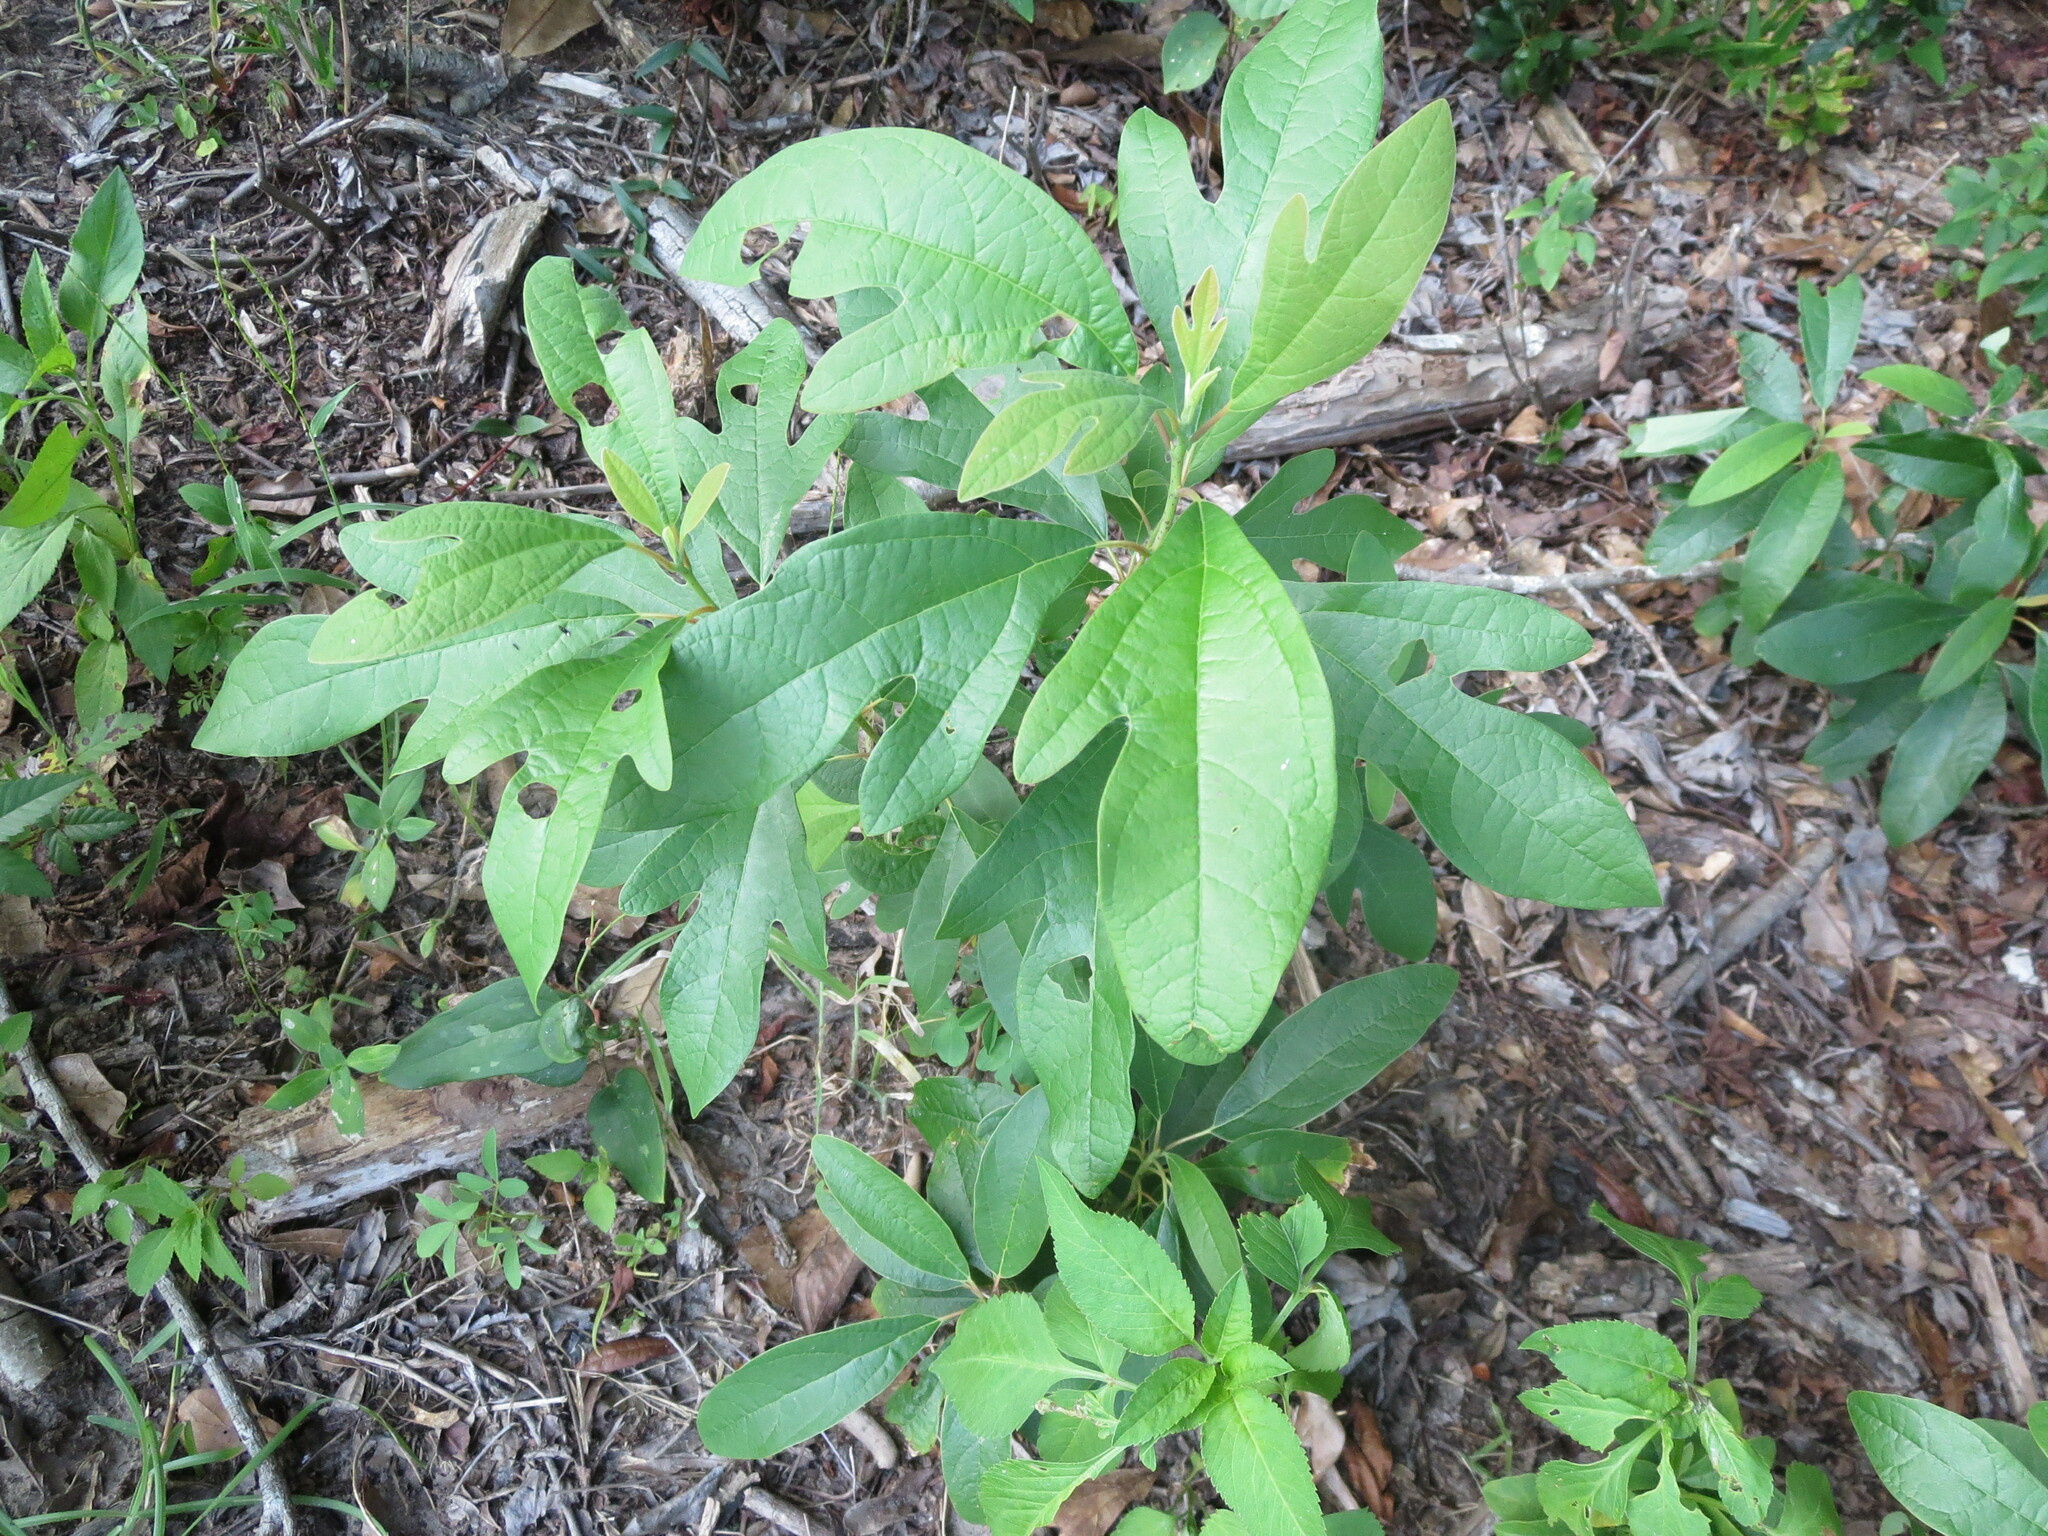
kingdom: Plantae
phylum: Tracheophyta
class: Magnoliopsida
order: Laurales
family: Lauraceae
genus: Sassafras
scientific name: Sassafras albidum
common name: Sassafras
